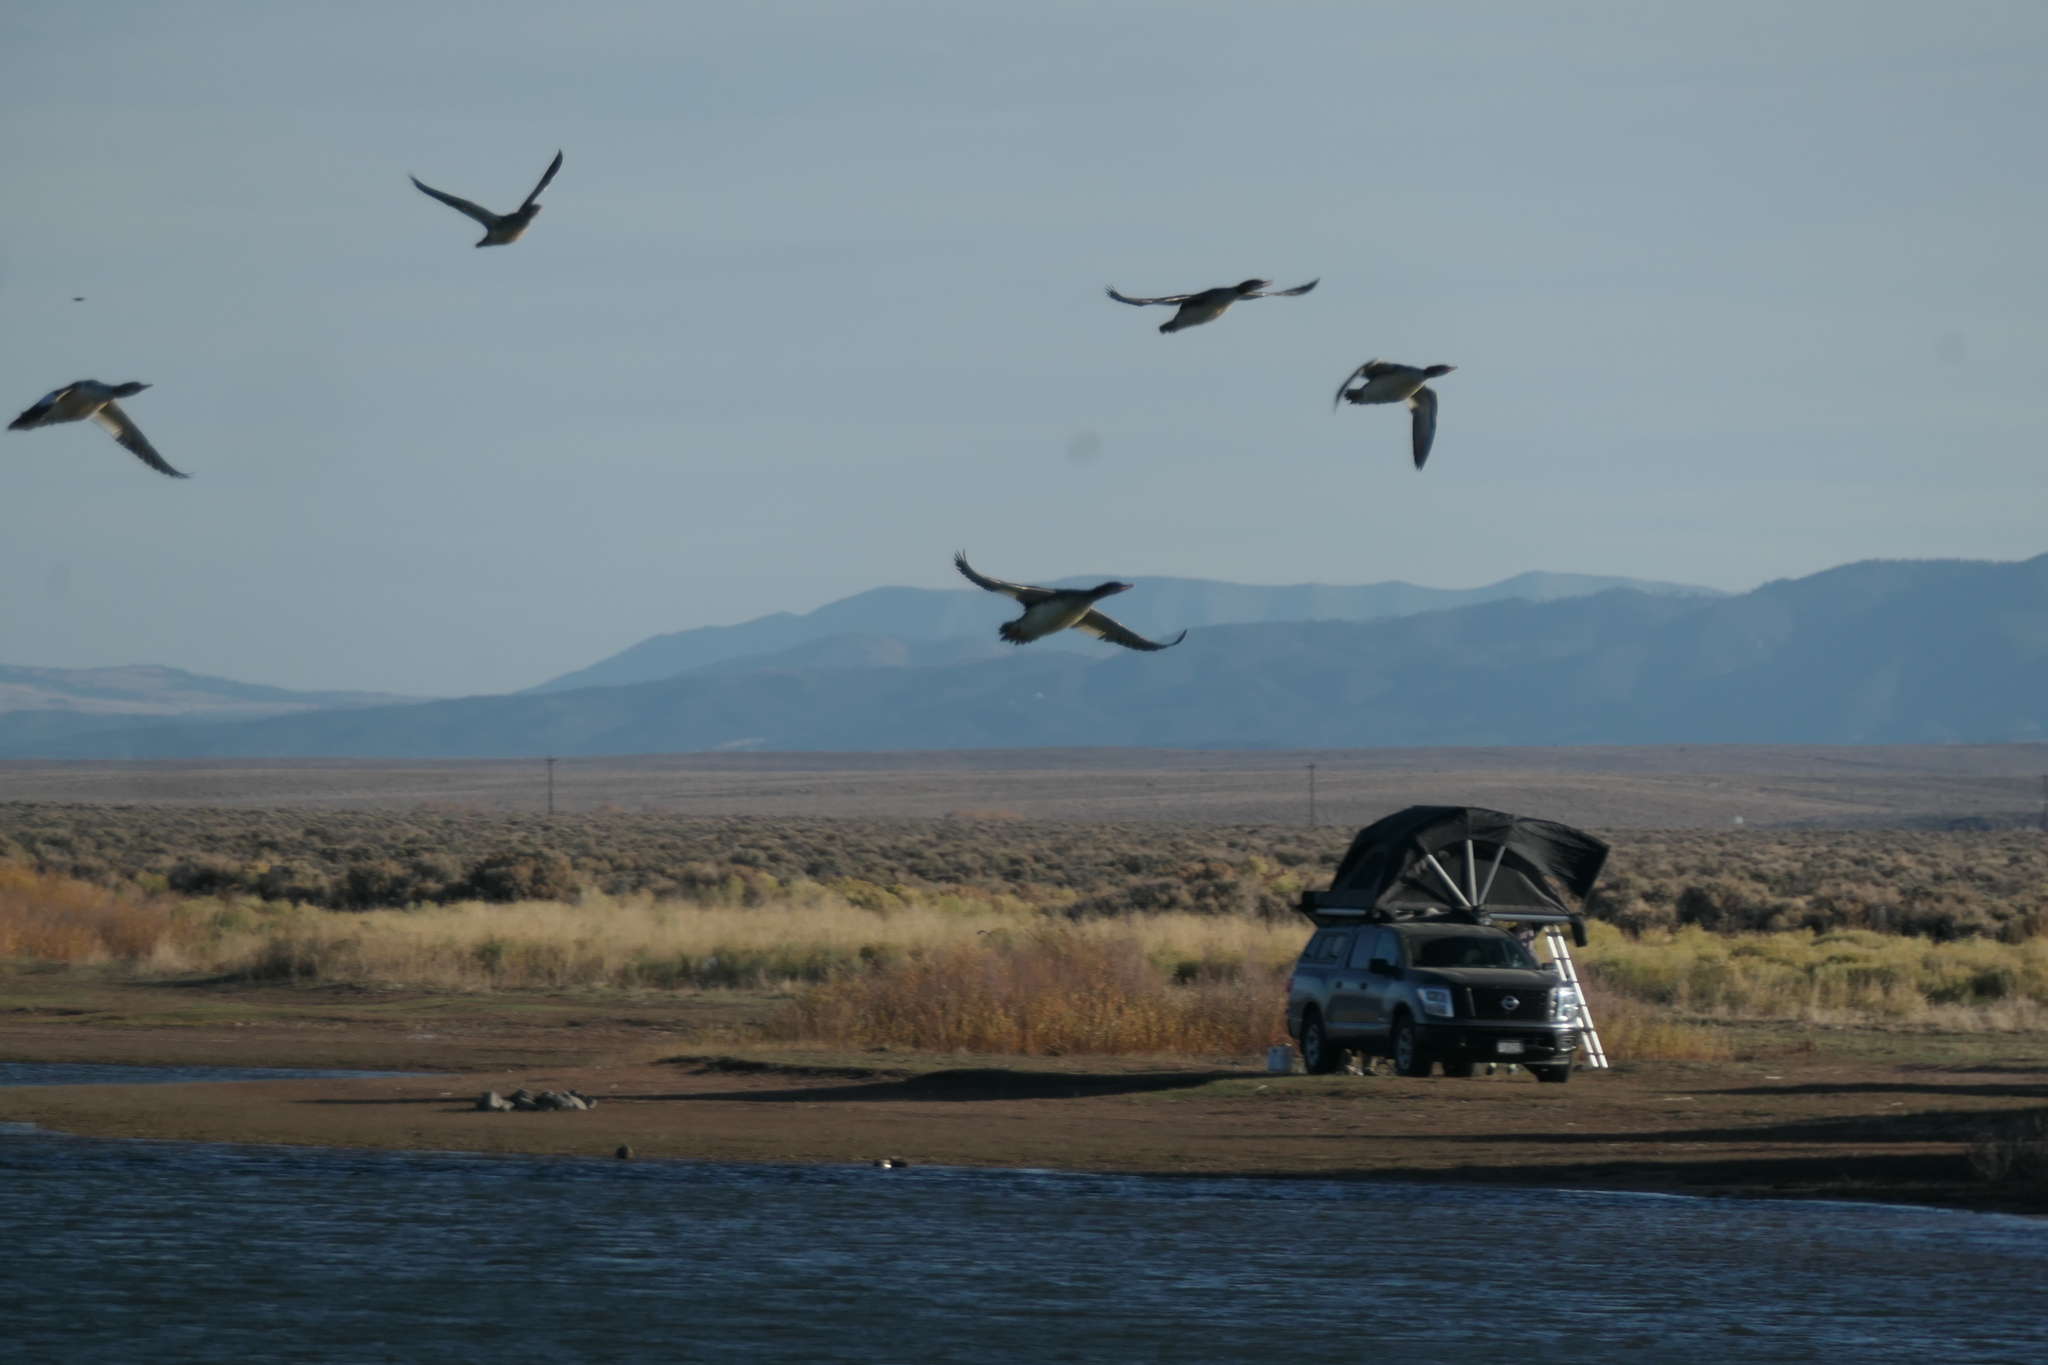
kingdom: Animalia
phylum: Chordata
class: Aves
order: Anseriformes
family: Anatidae
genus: Mergus
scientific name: Mergus merganser
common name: Common merganser
